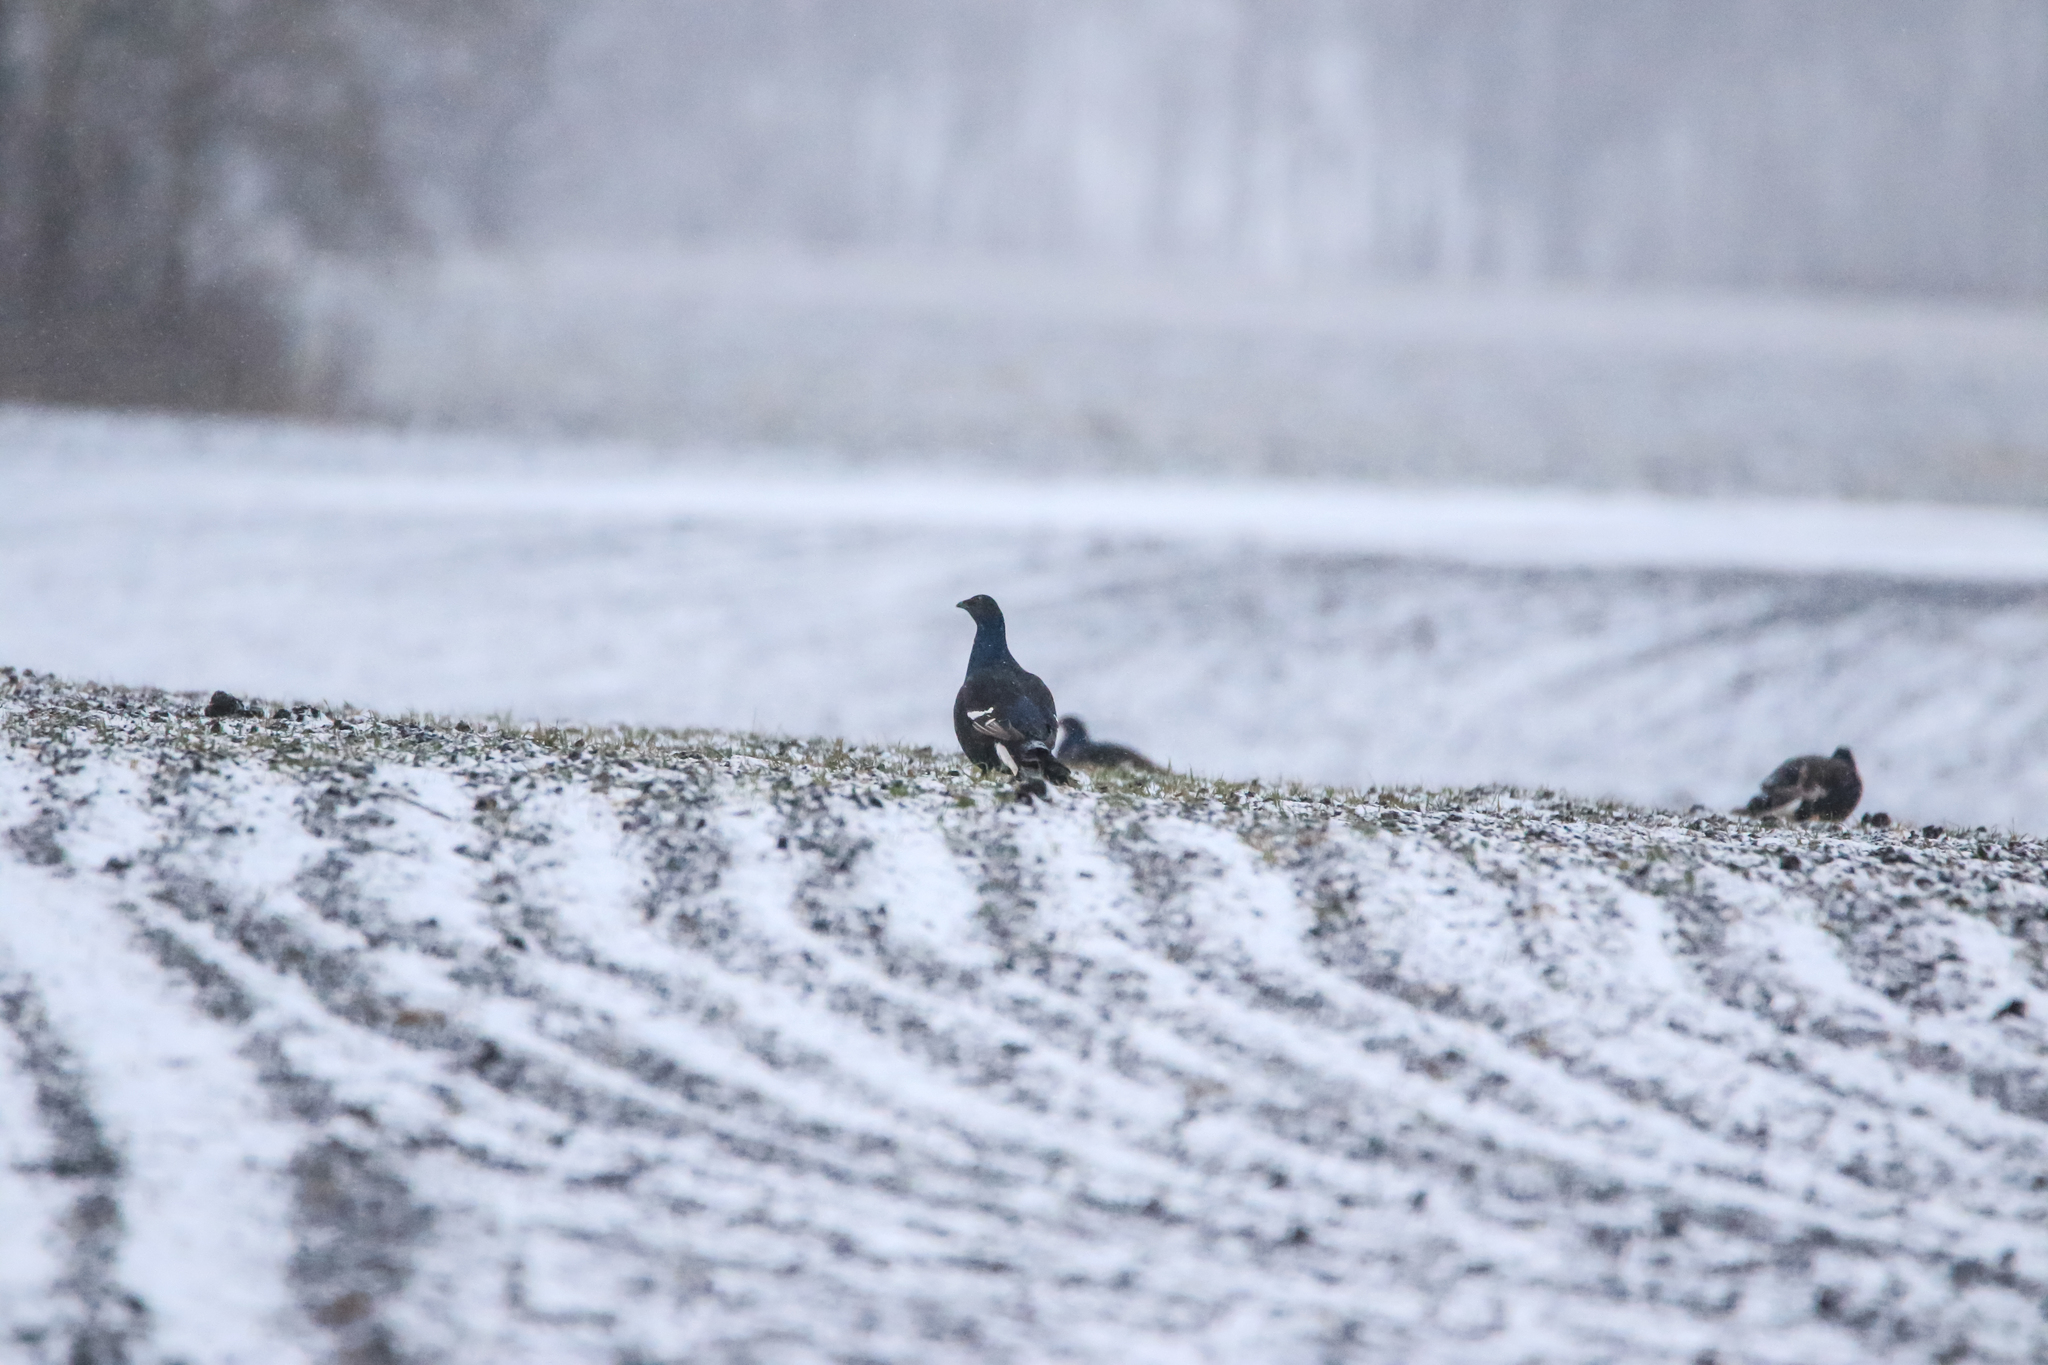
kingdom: Animalia
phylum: Chordata
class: Aves
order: Galliformes
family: Phasianidae
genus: Lyrurus
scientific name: Lyrurus tetrix
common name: Black grouse
